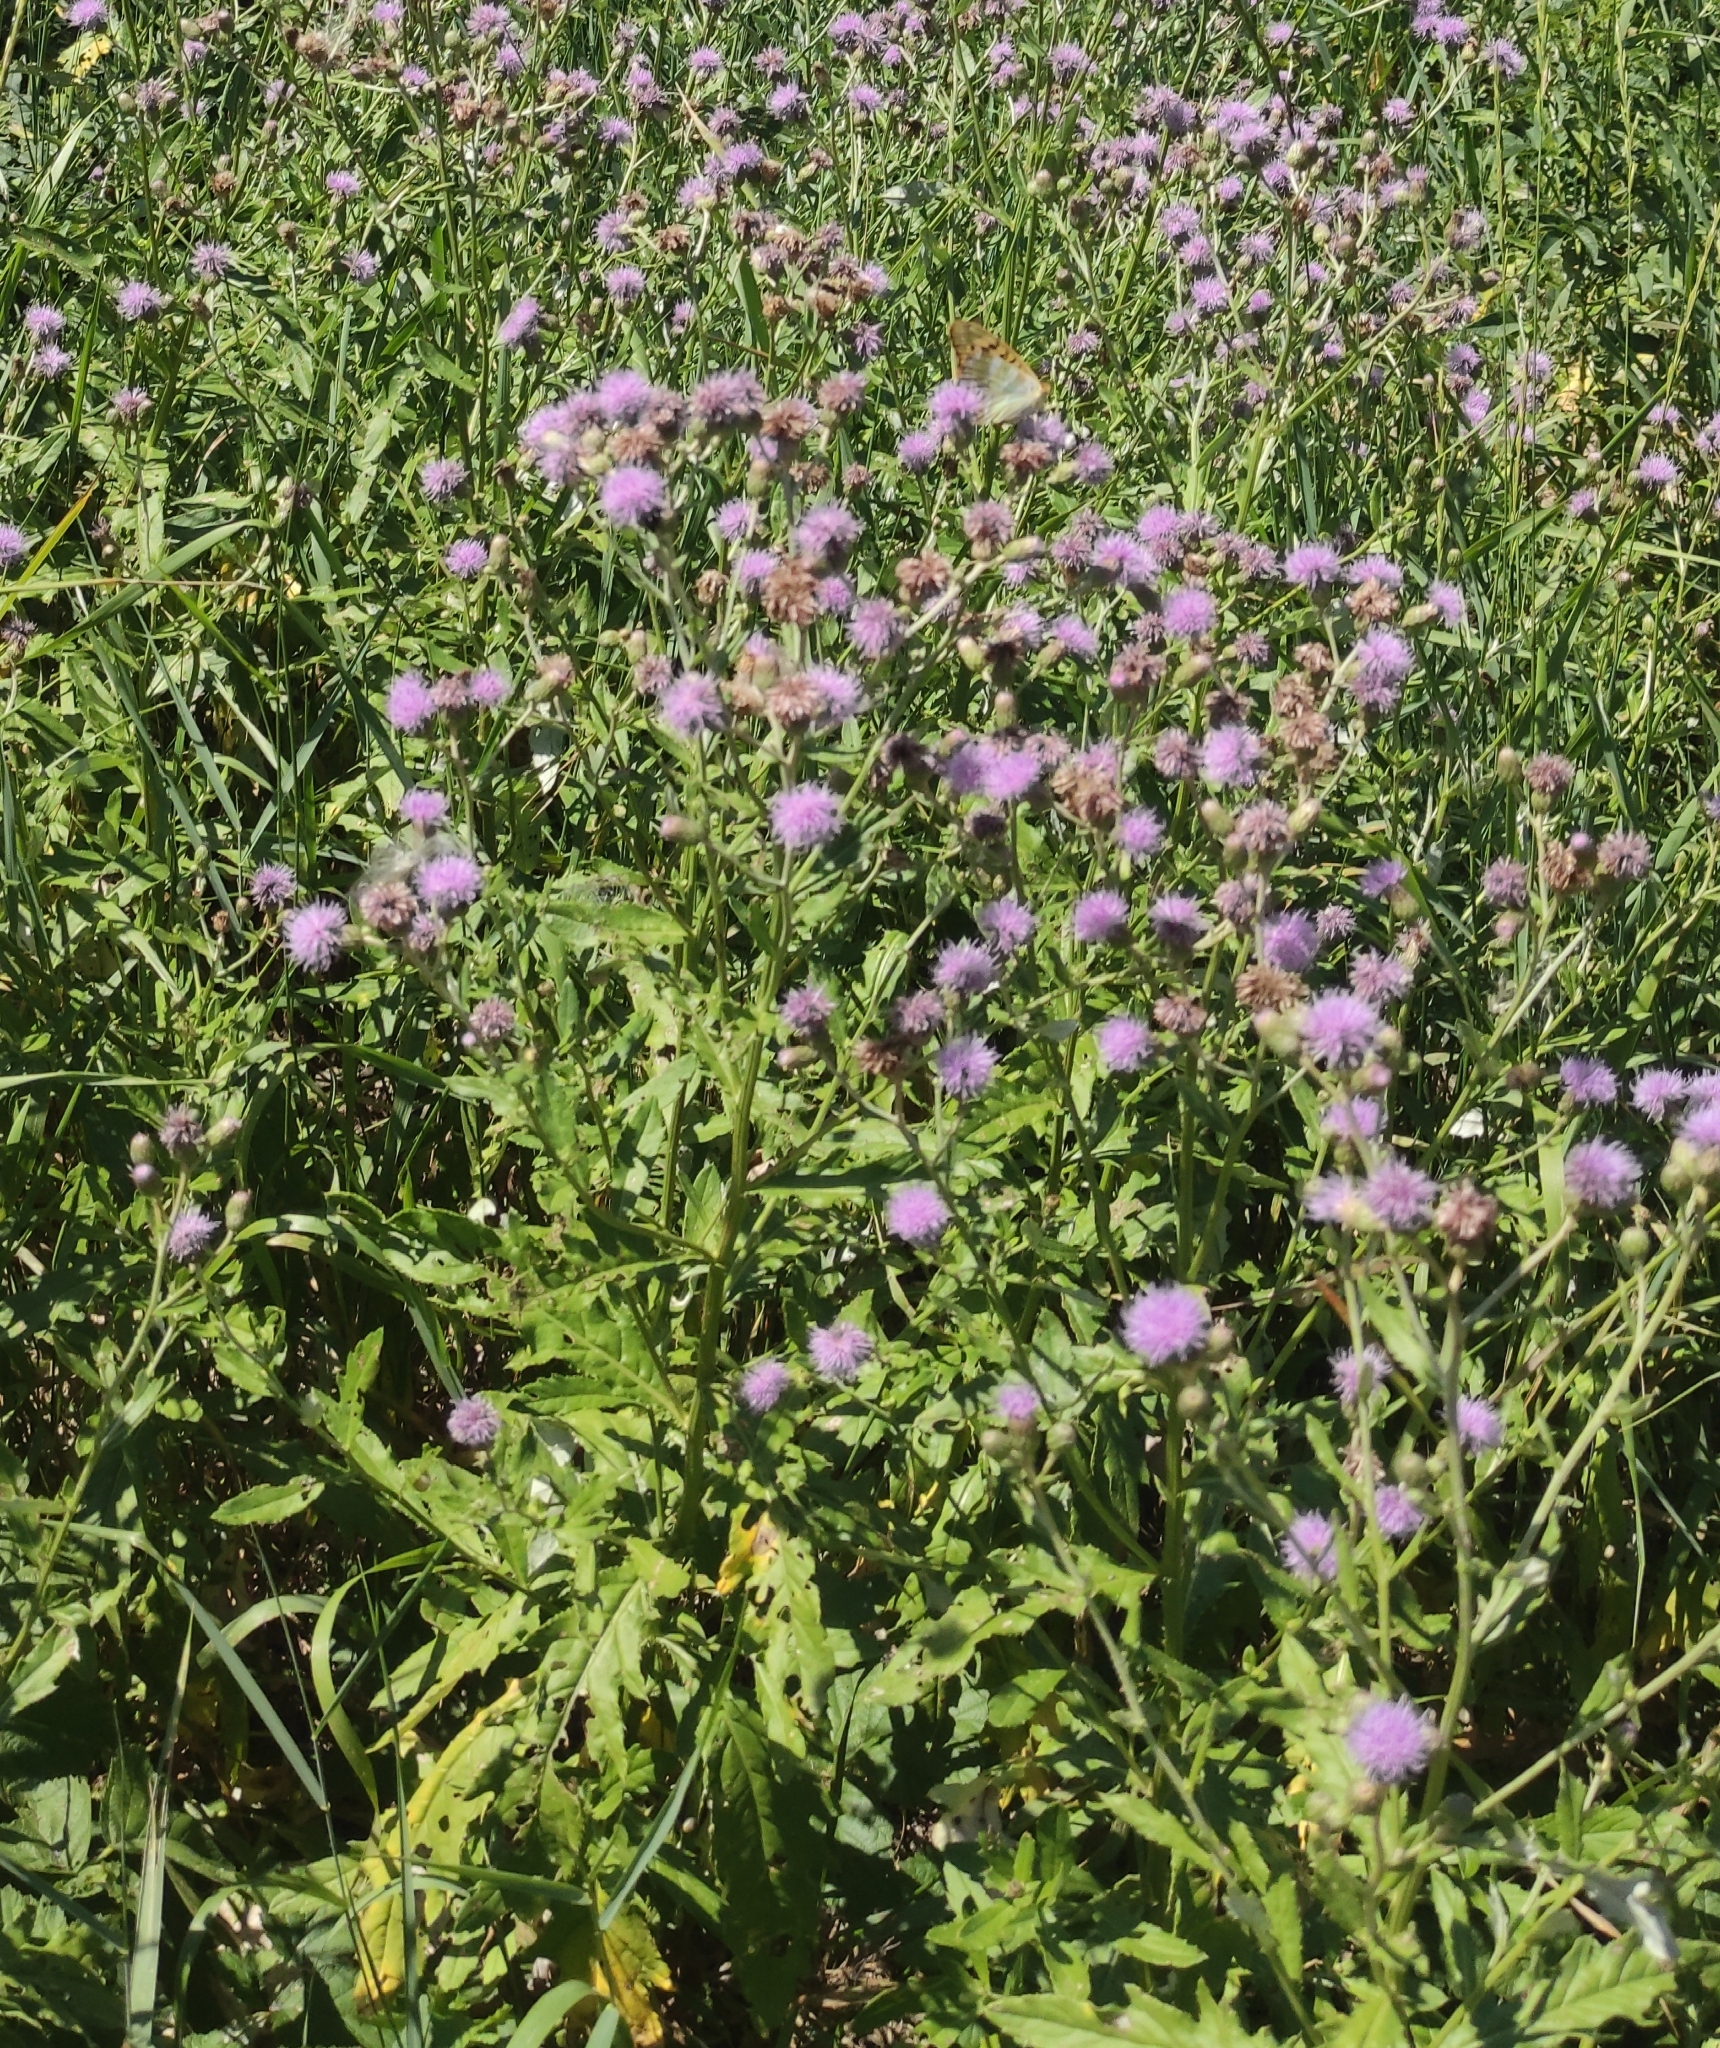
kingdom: Plantae
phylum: Tracheophyta
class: Magnoliopsida
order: Asterales
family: Asteraceae
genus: Cirsium
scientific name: Cirsium arvense
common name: Creeping thistle
